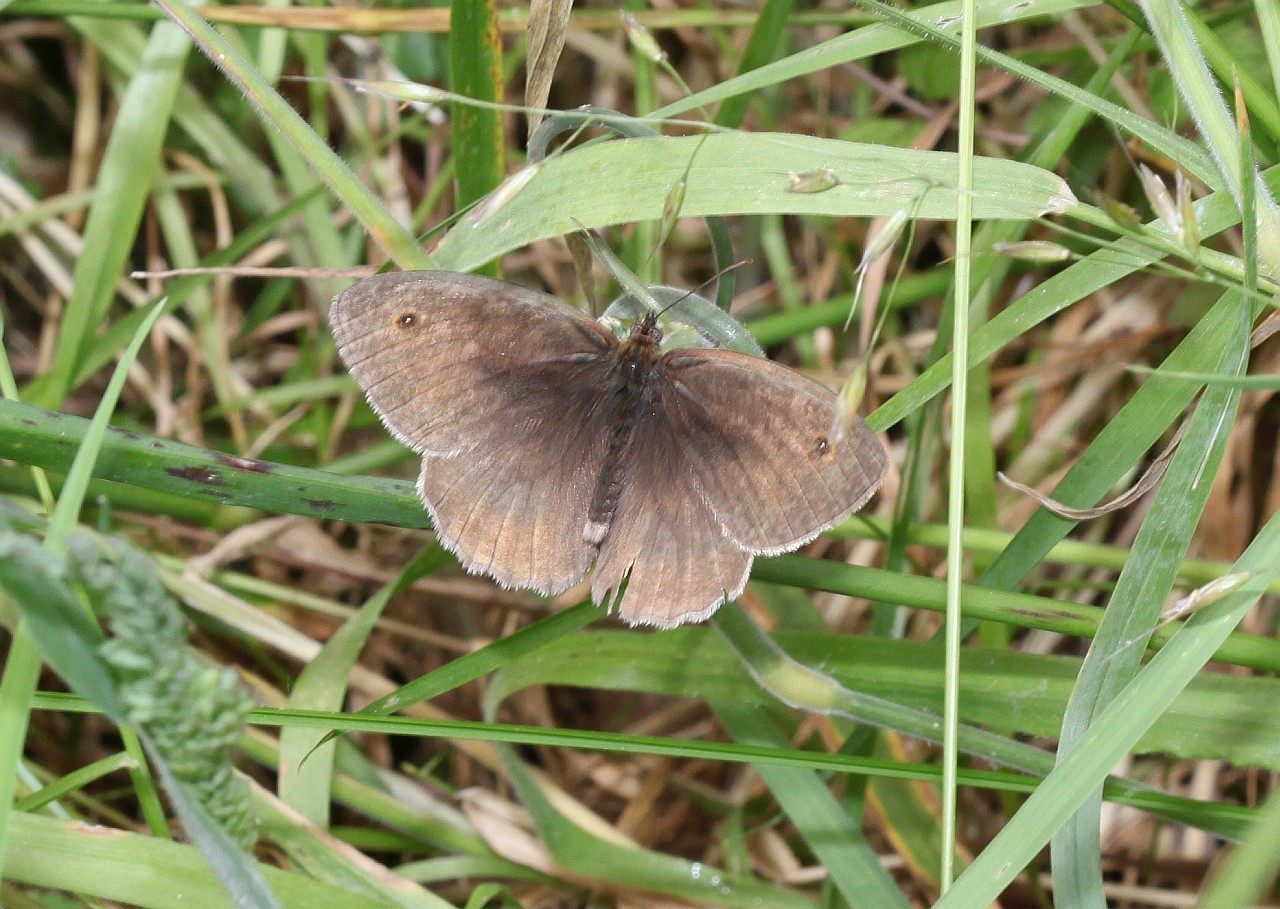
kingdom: Animalia
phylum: Arthropoda
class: Insecta
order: Lepidoptera
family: Nymphalidae
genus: Maniola
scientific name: Maniola jurtina
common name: Meadow brown
